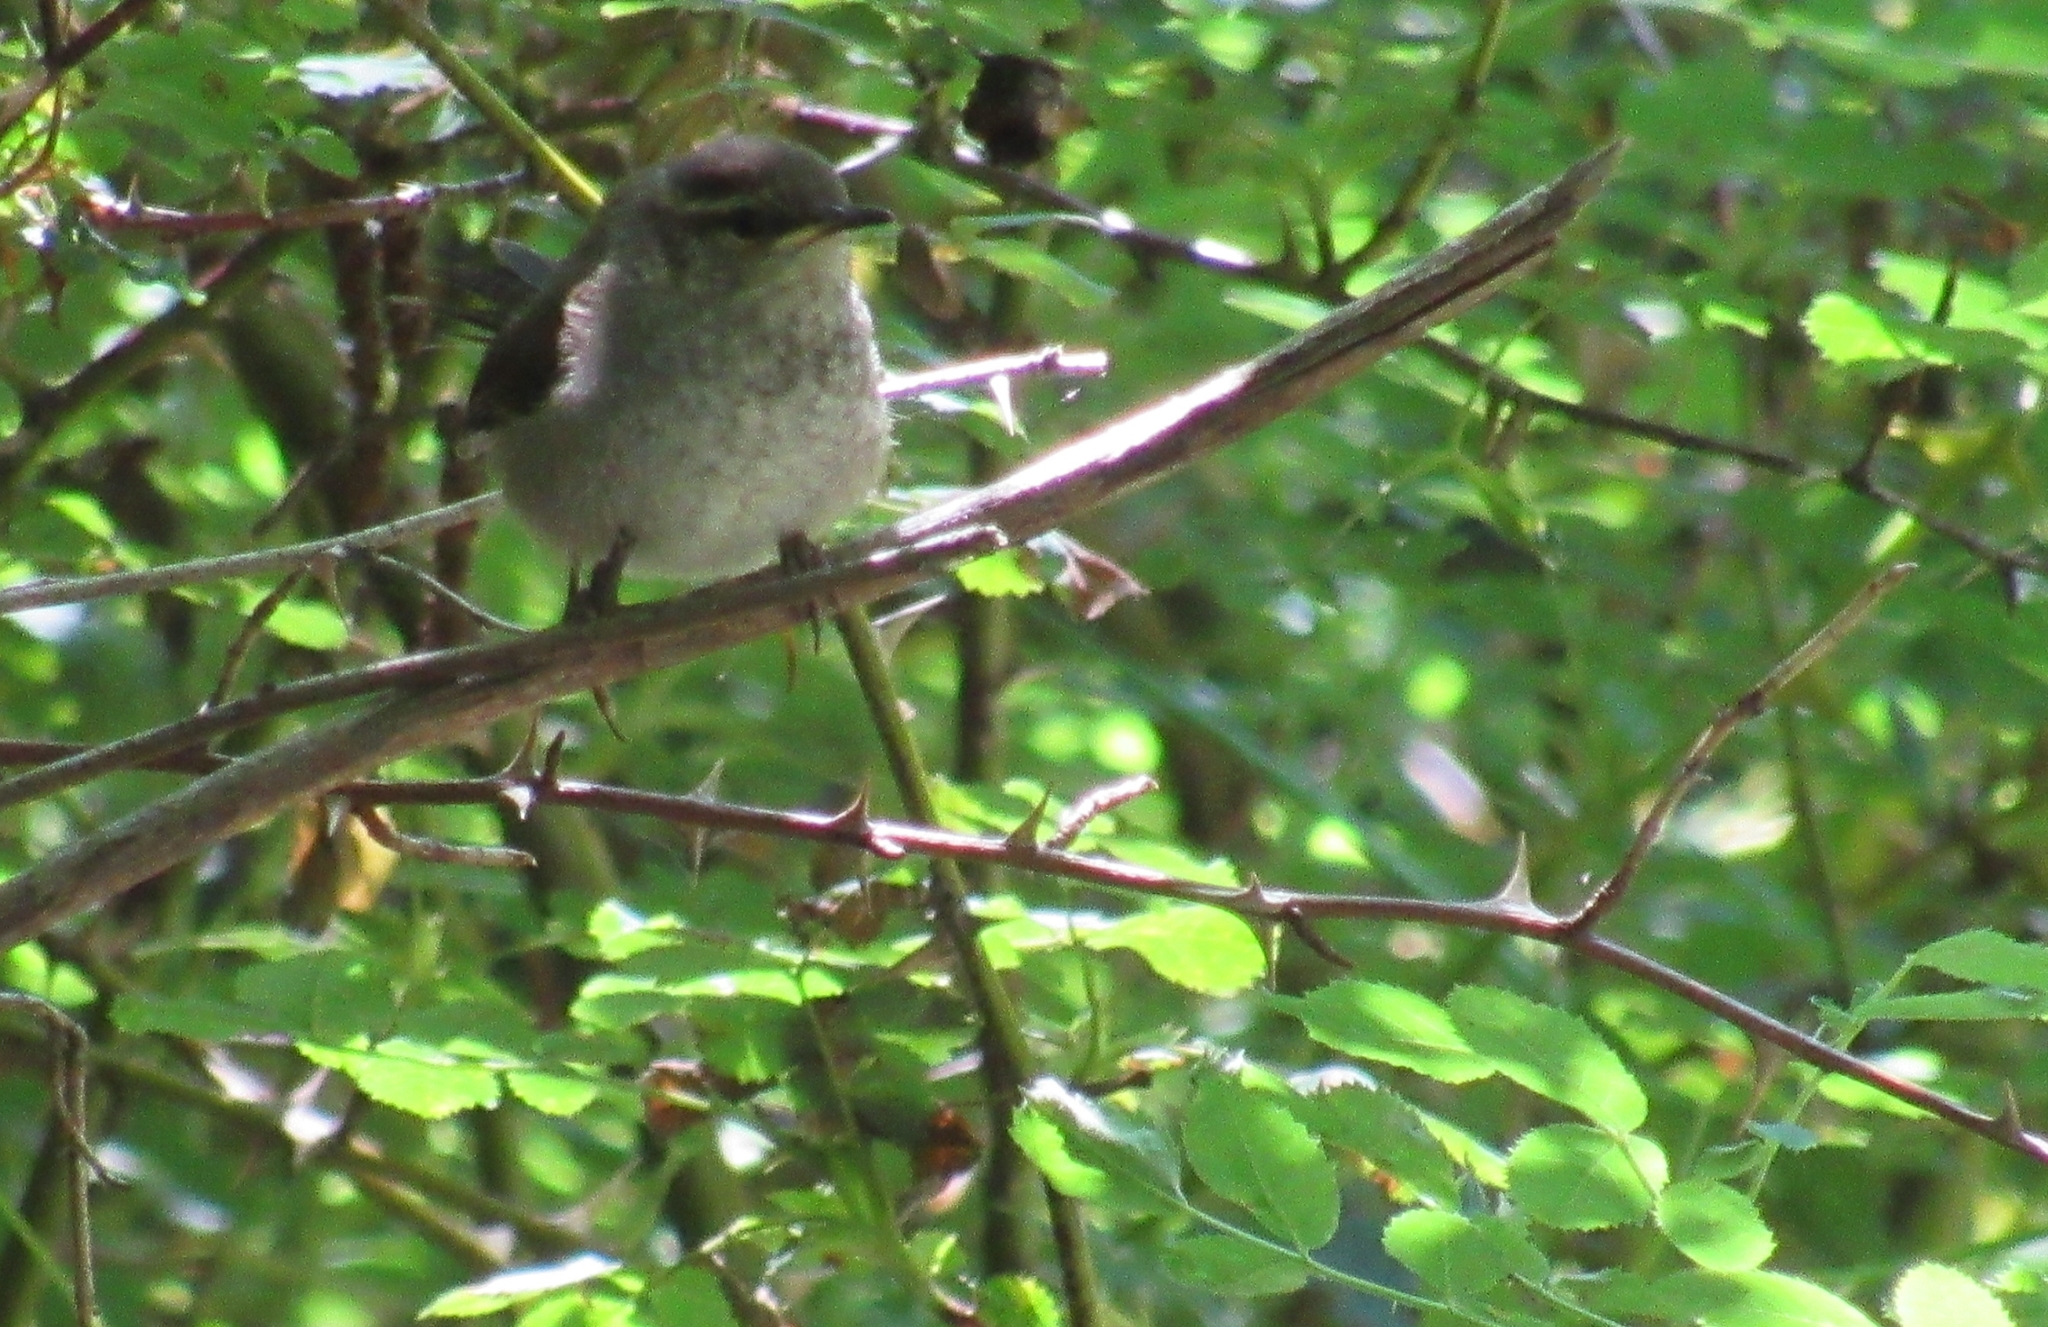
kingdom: Animalia
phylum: Chordata
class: Aves
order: Passeriformes
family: Troglodytidae
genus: Thryomanes
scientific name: Thryomanes bewickii
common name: Bewick's wren
